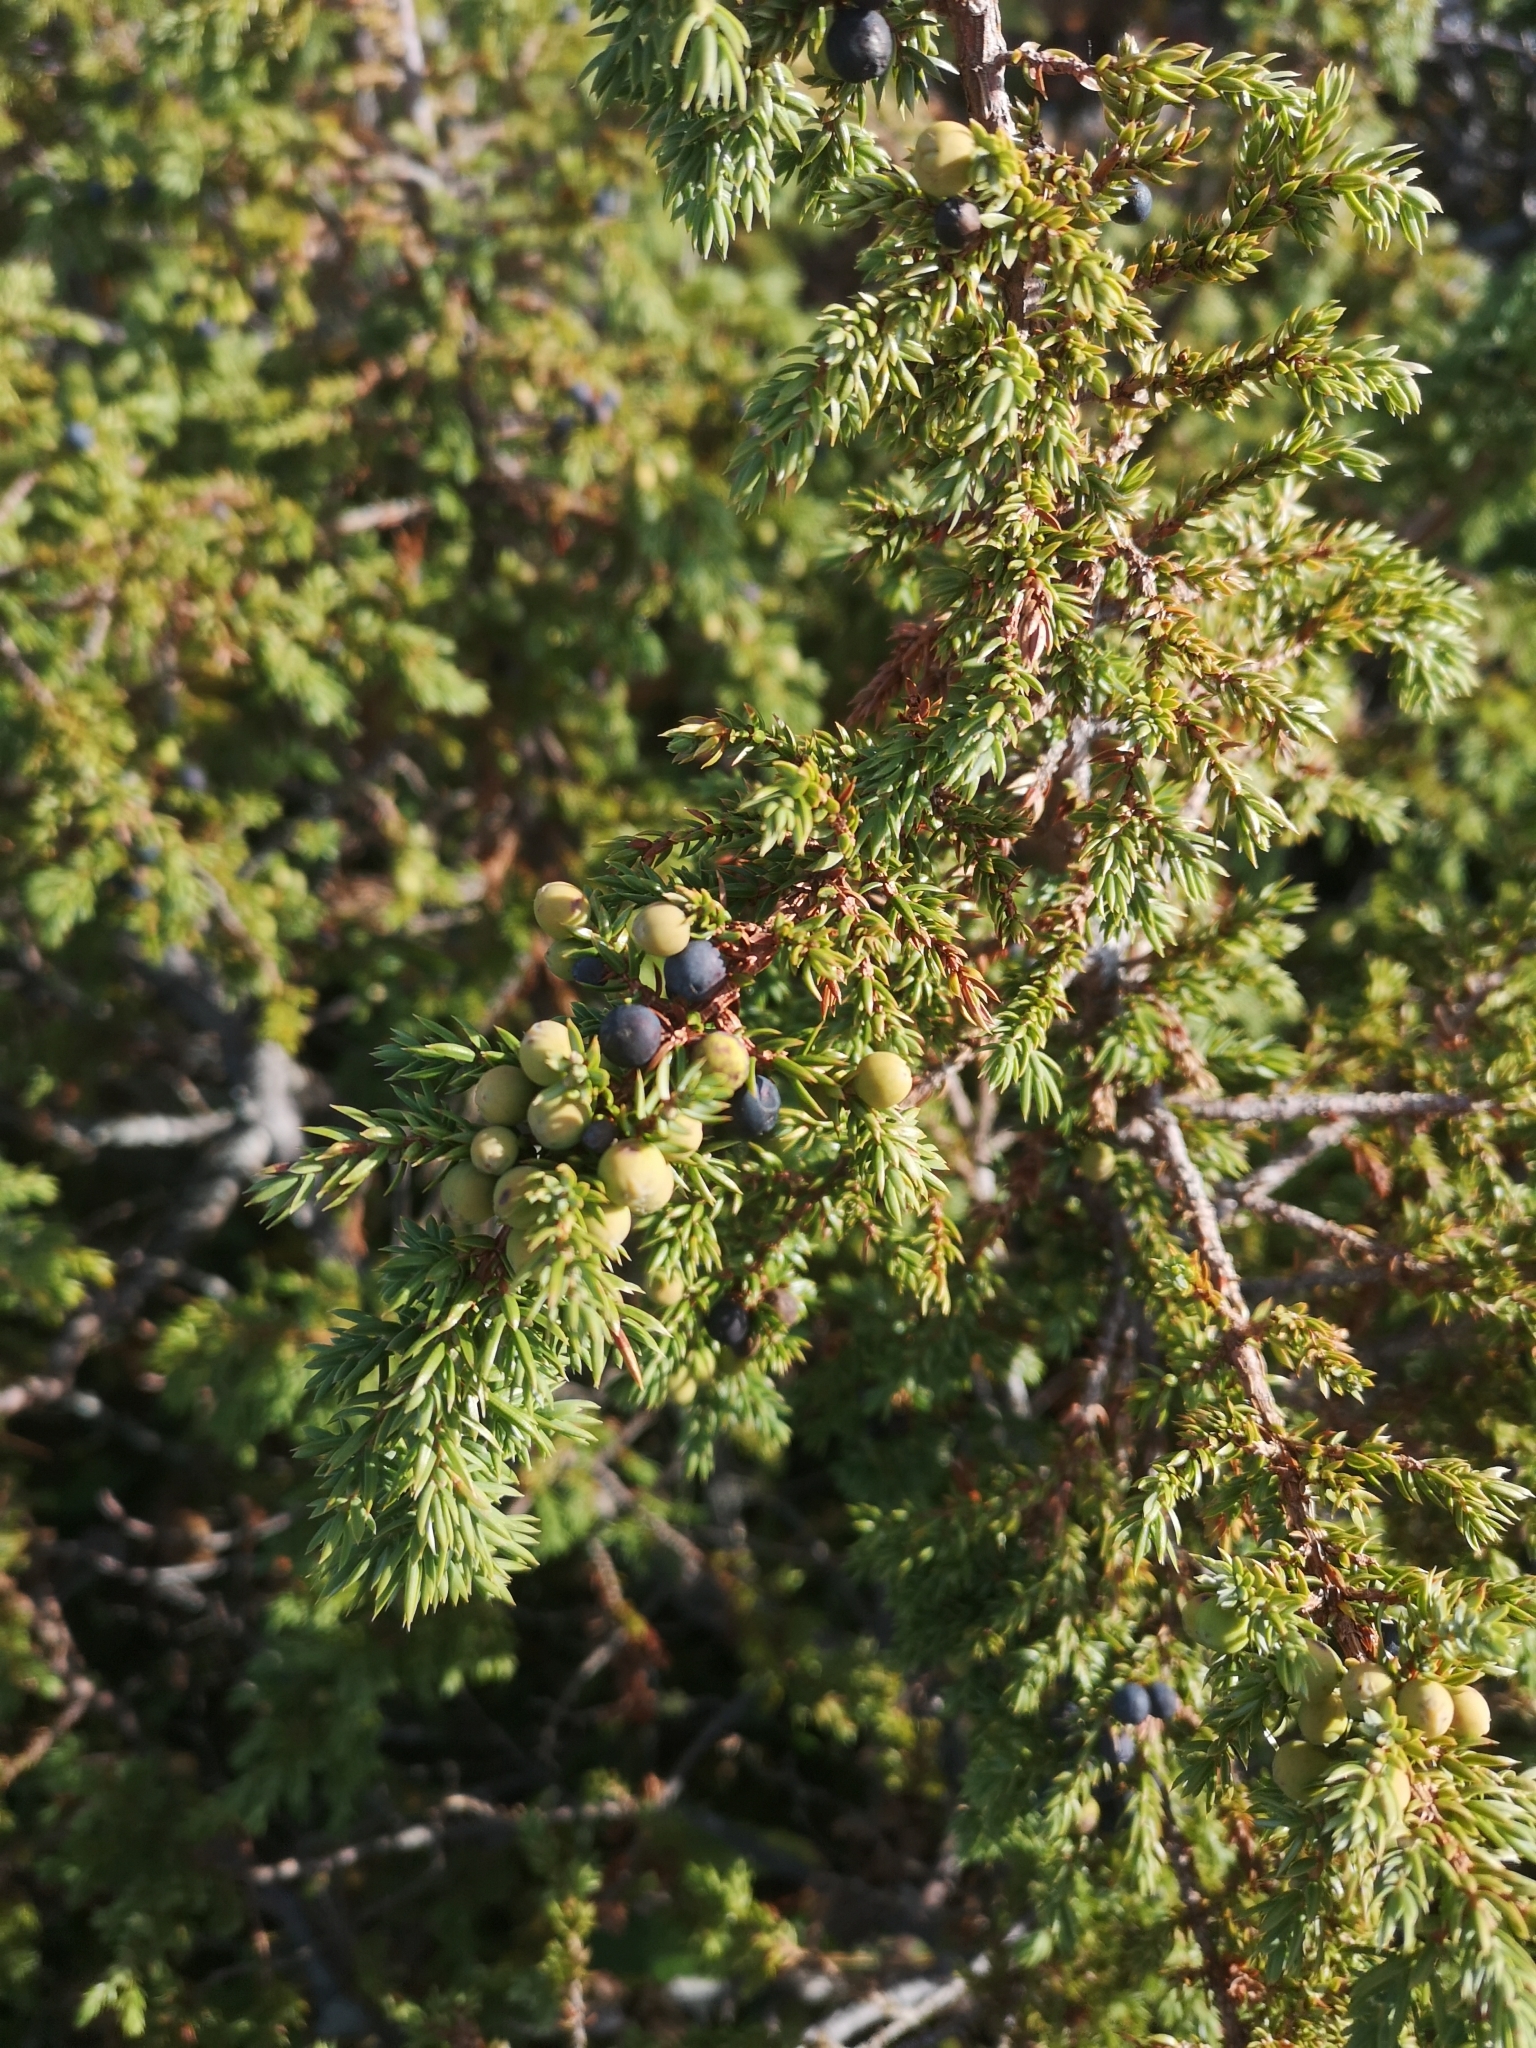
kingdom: Plantae
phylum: Tracheophyta
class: Pinopsida
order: Pinales
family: Cupressaceae
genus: Juniperus
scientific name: Juniperus communis
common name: Common juniper
